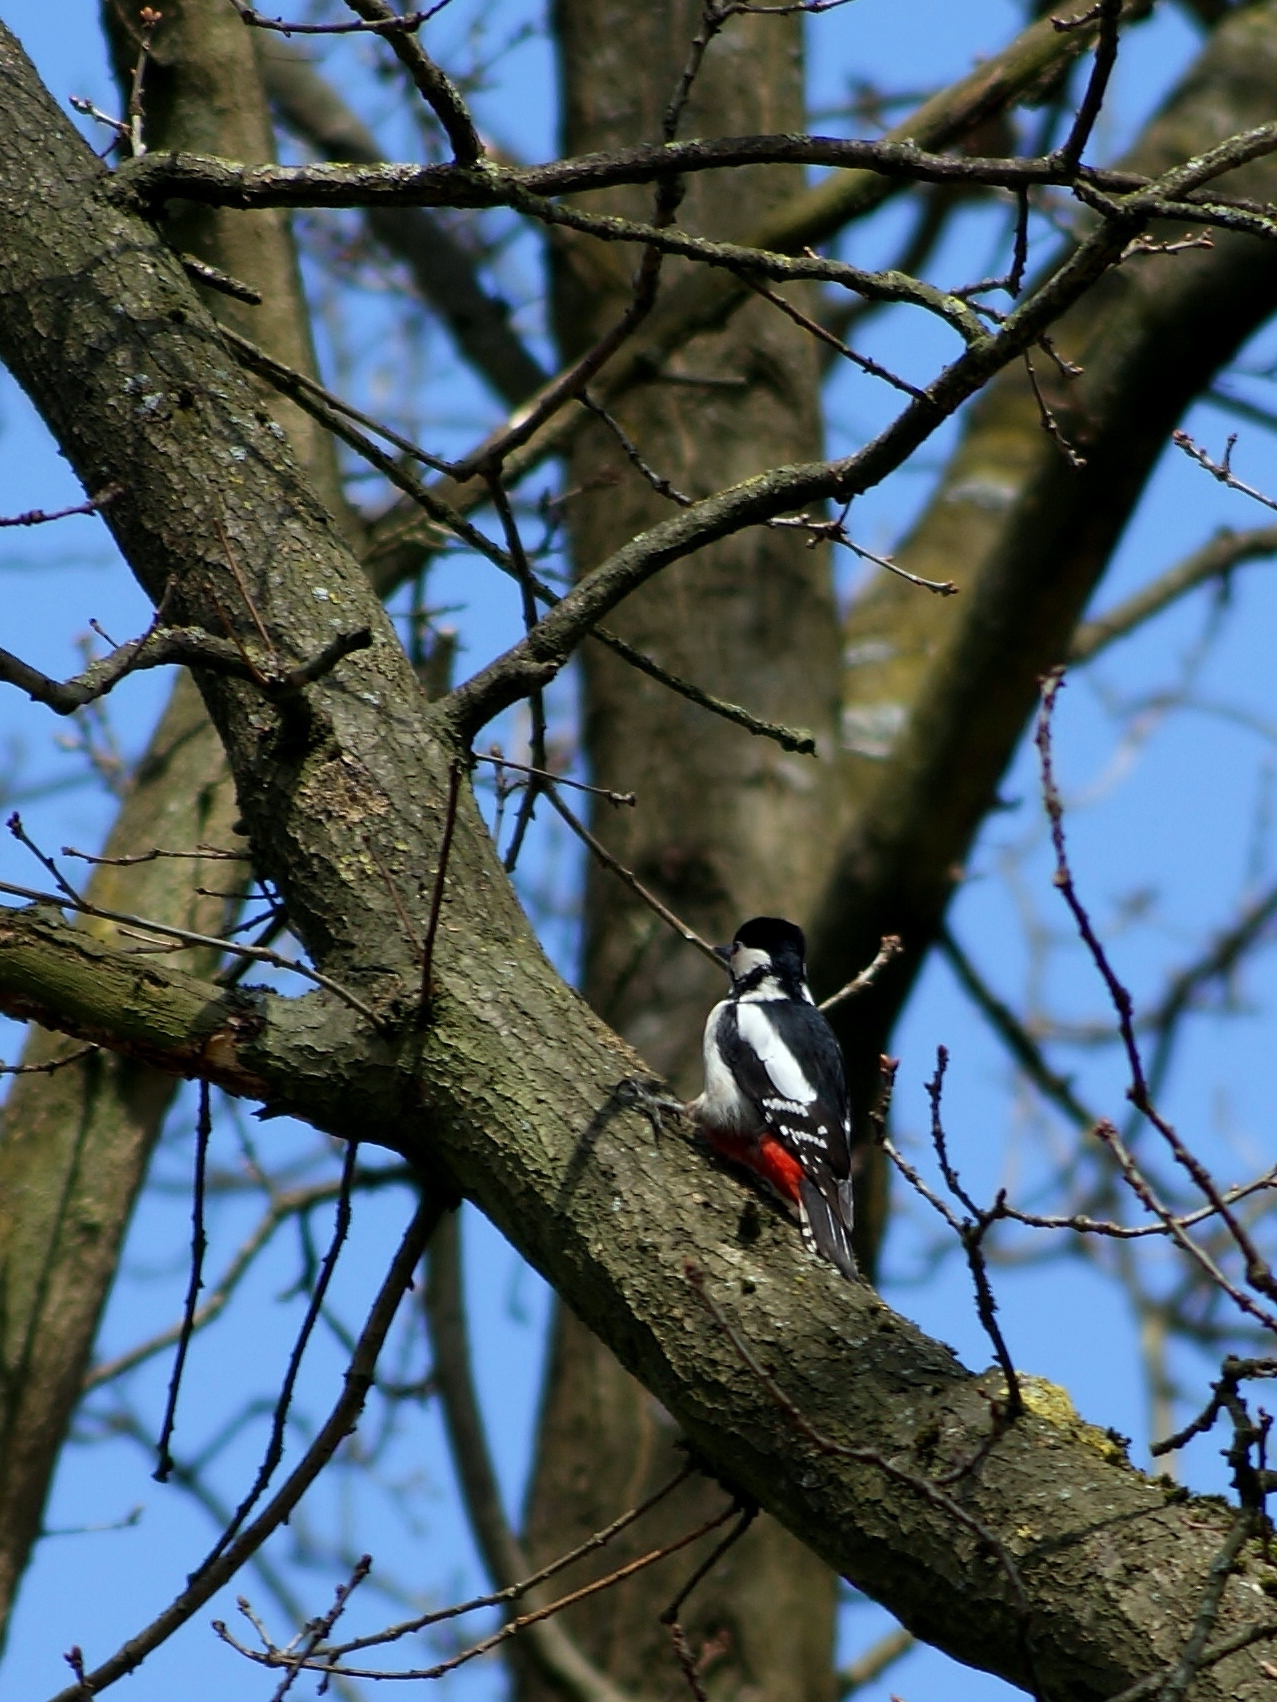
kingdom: Animalia
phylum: Chordata
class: Aves
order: Piciformes
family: Picidae
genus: Dendrocopos
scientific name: Dendrocopos major
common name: Great spotted woodpecker
